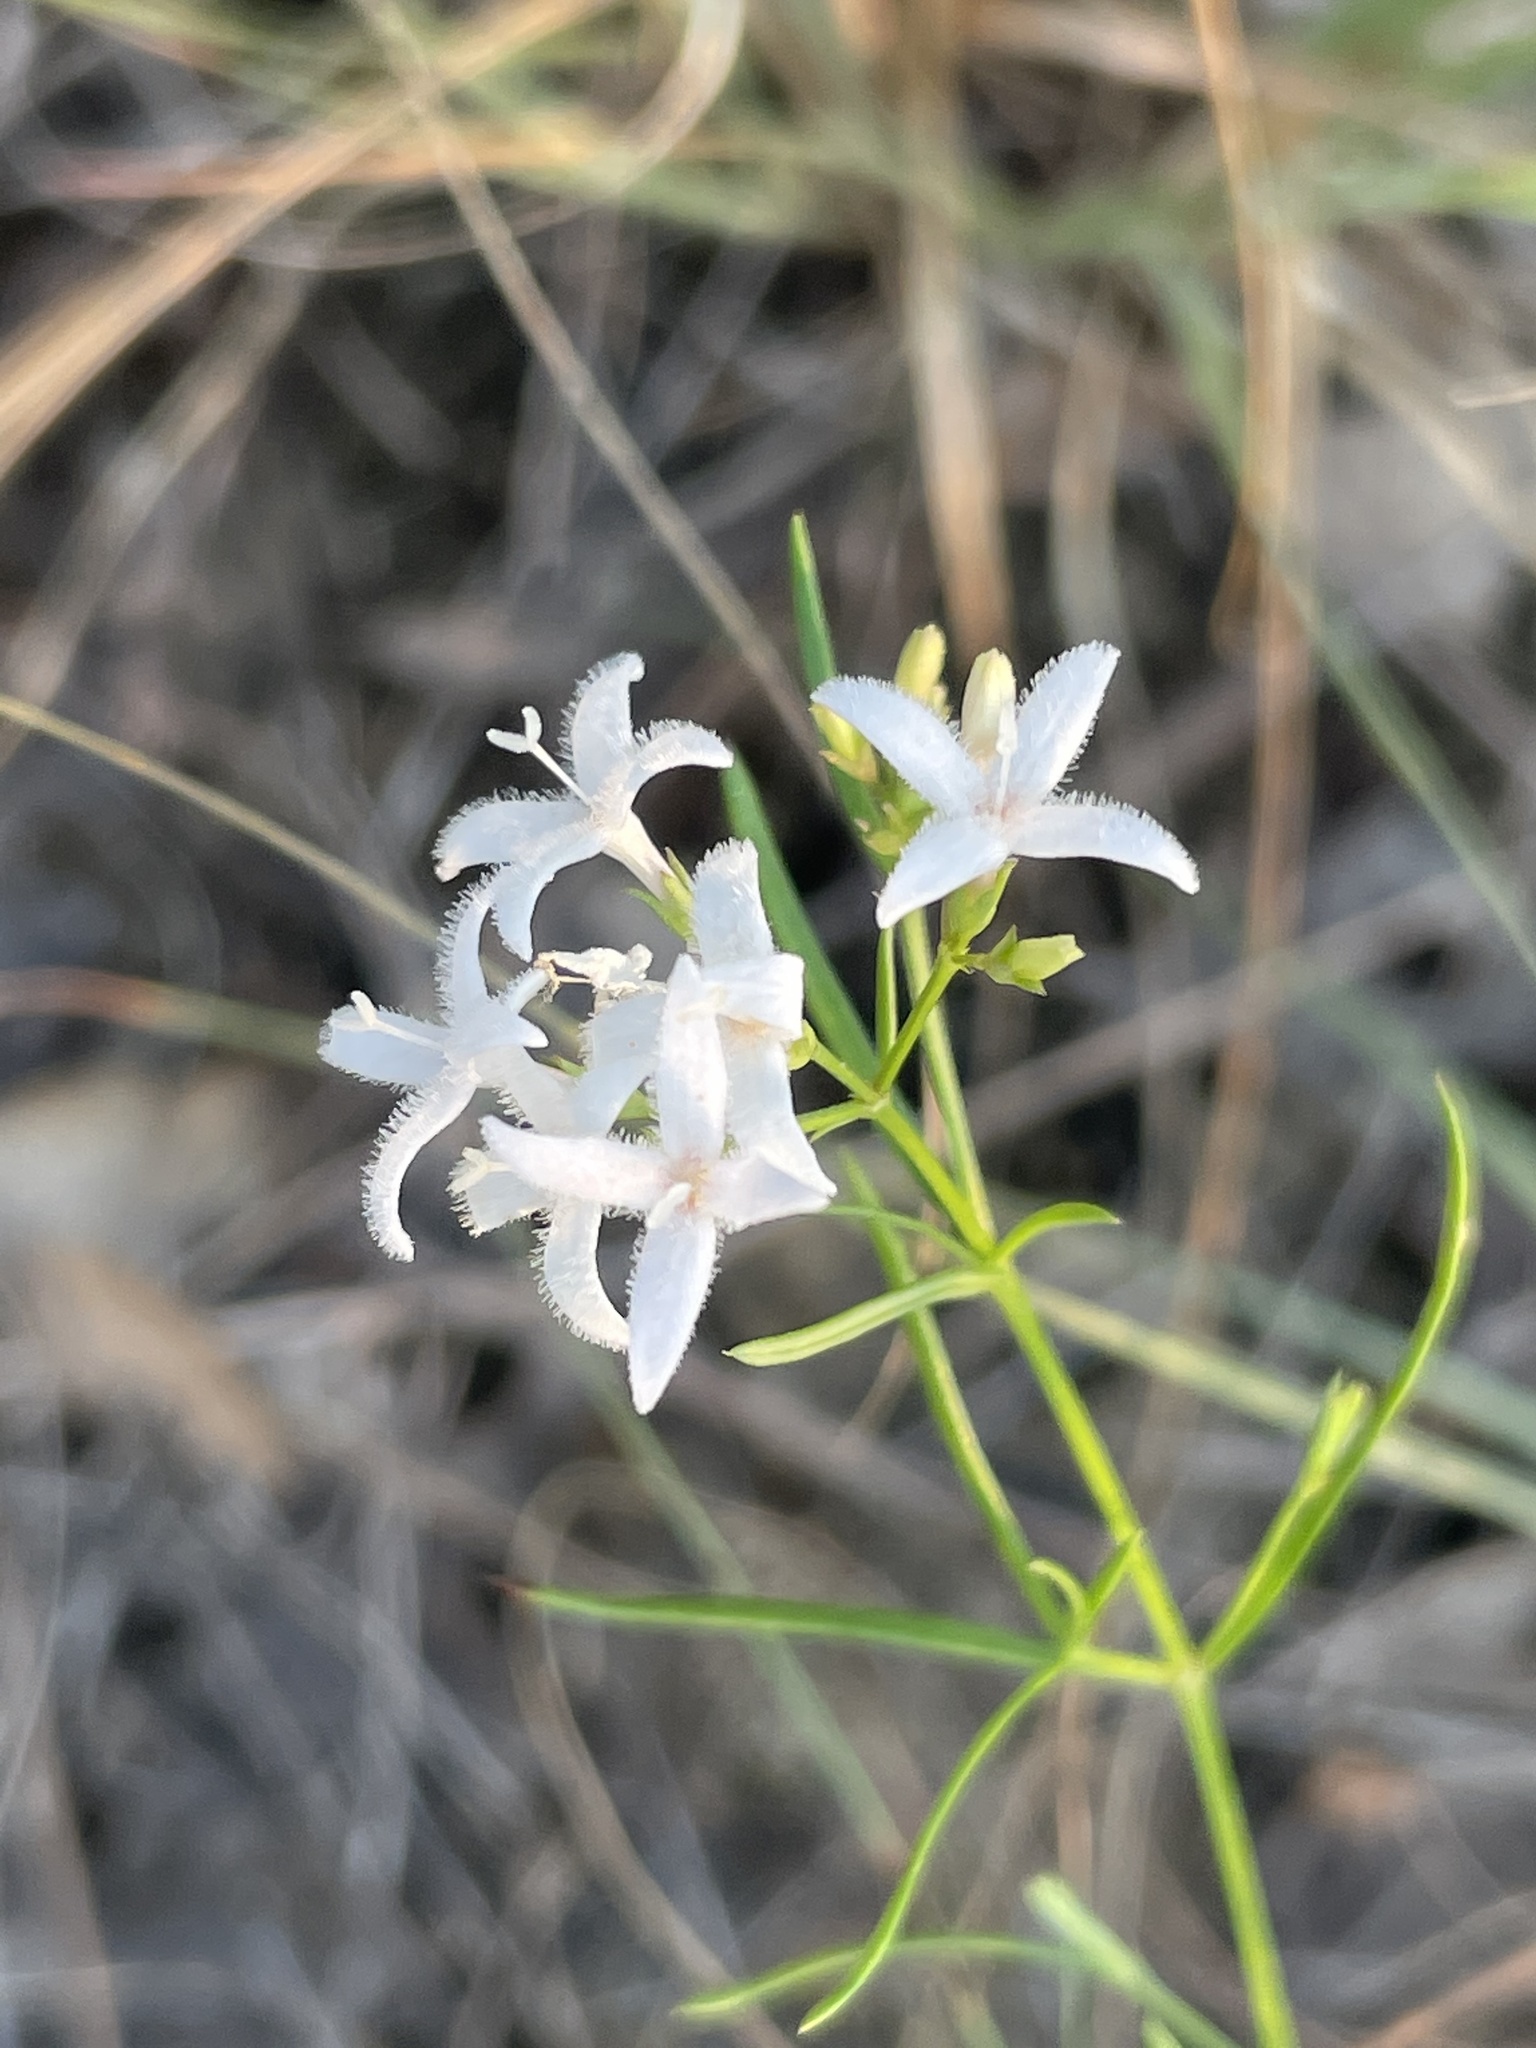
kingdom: Plantae
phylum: Tracheophyta
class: Magnoliopsida
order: Gentianales
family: Rubiaceae
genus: Stenaria
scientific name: Stenaria nigricans
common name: Diamondflowers
